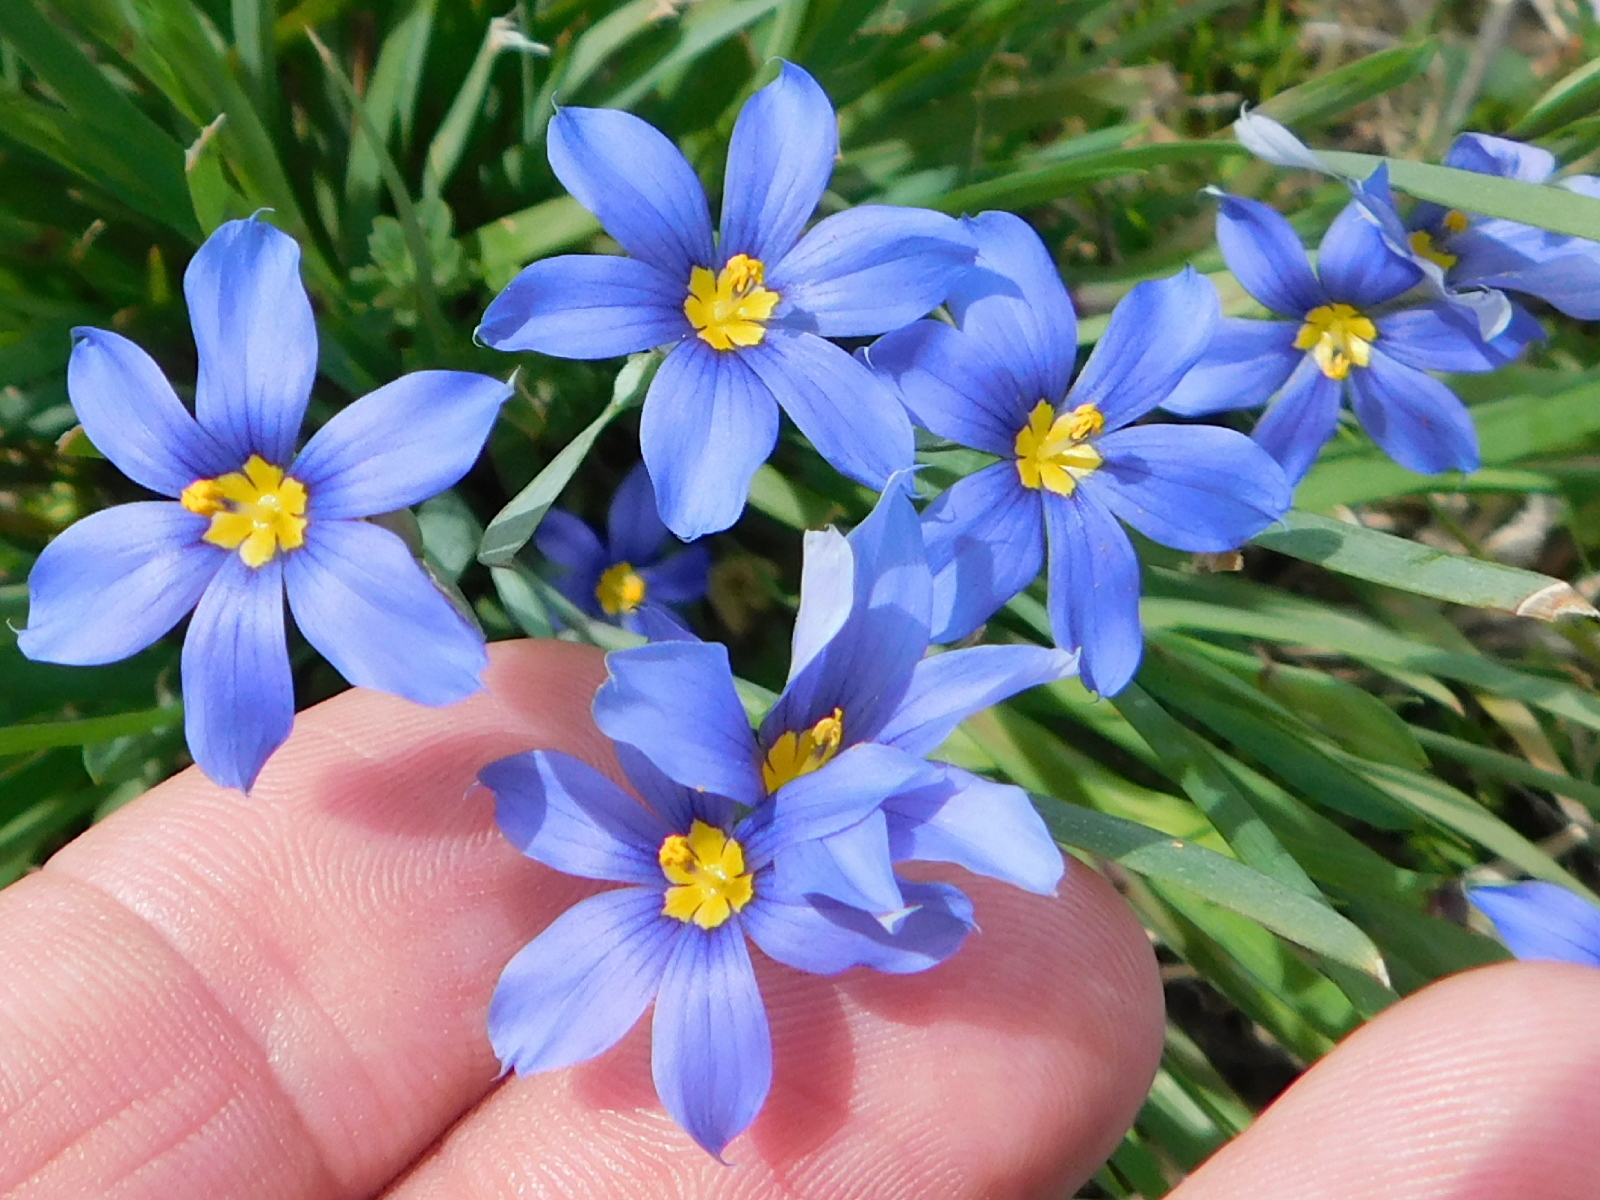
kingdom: Plantae
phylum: Tracheophyta
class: Liliopsida
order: Asparagales
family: Iridaceae
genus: Sisyrinchium
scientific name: Sisyrinchium pruinosum
